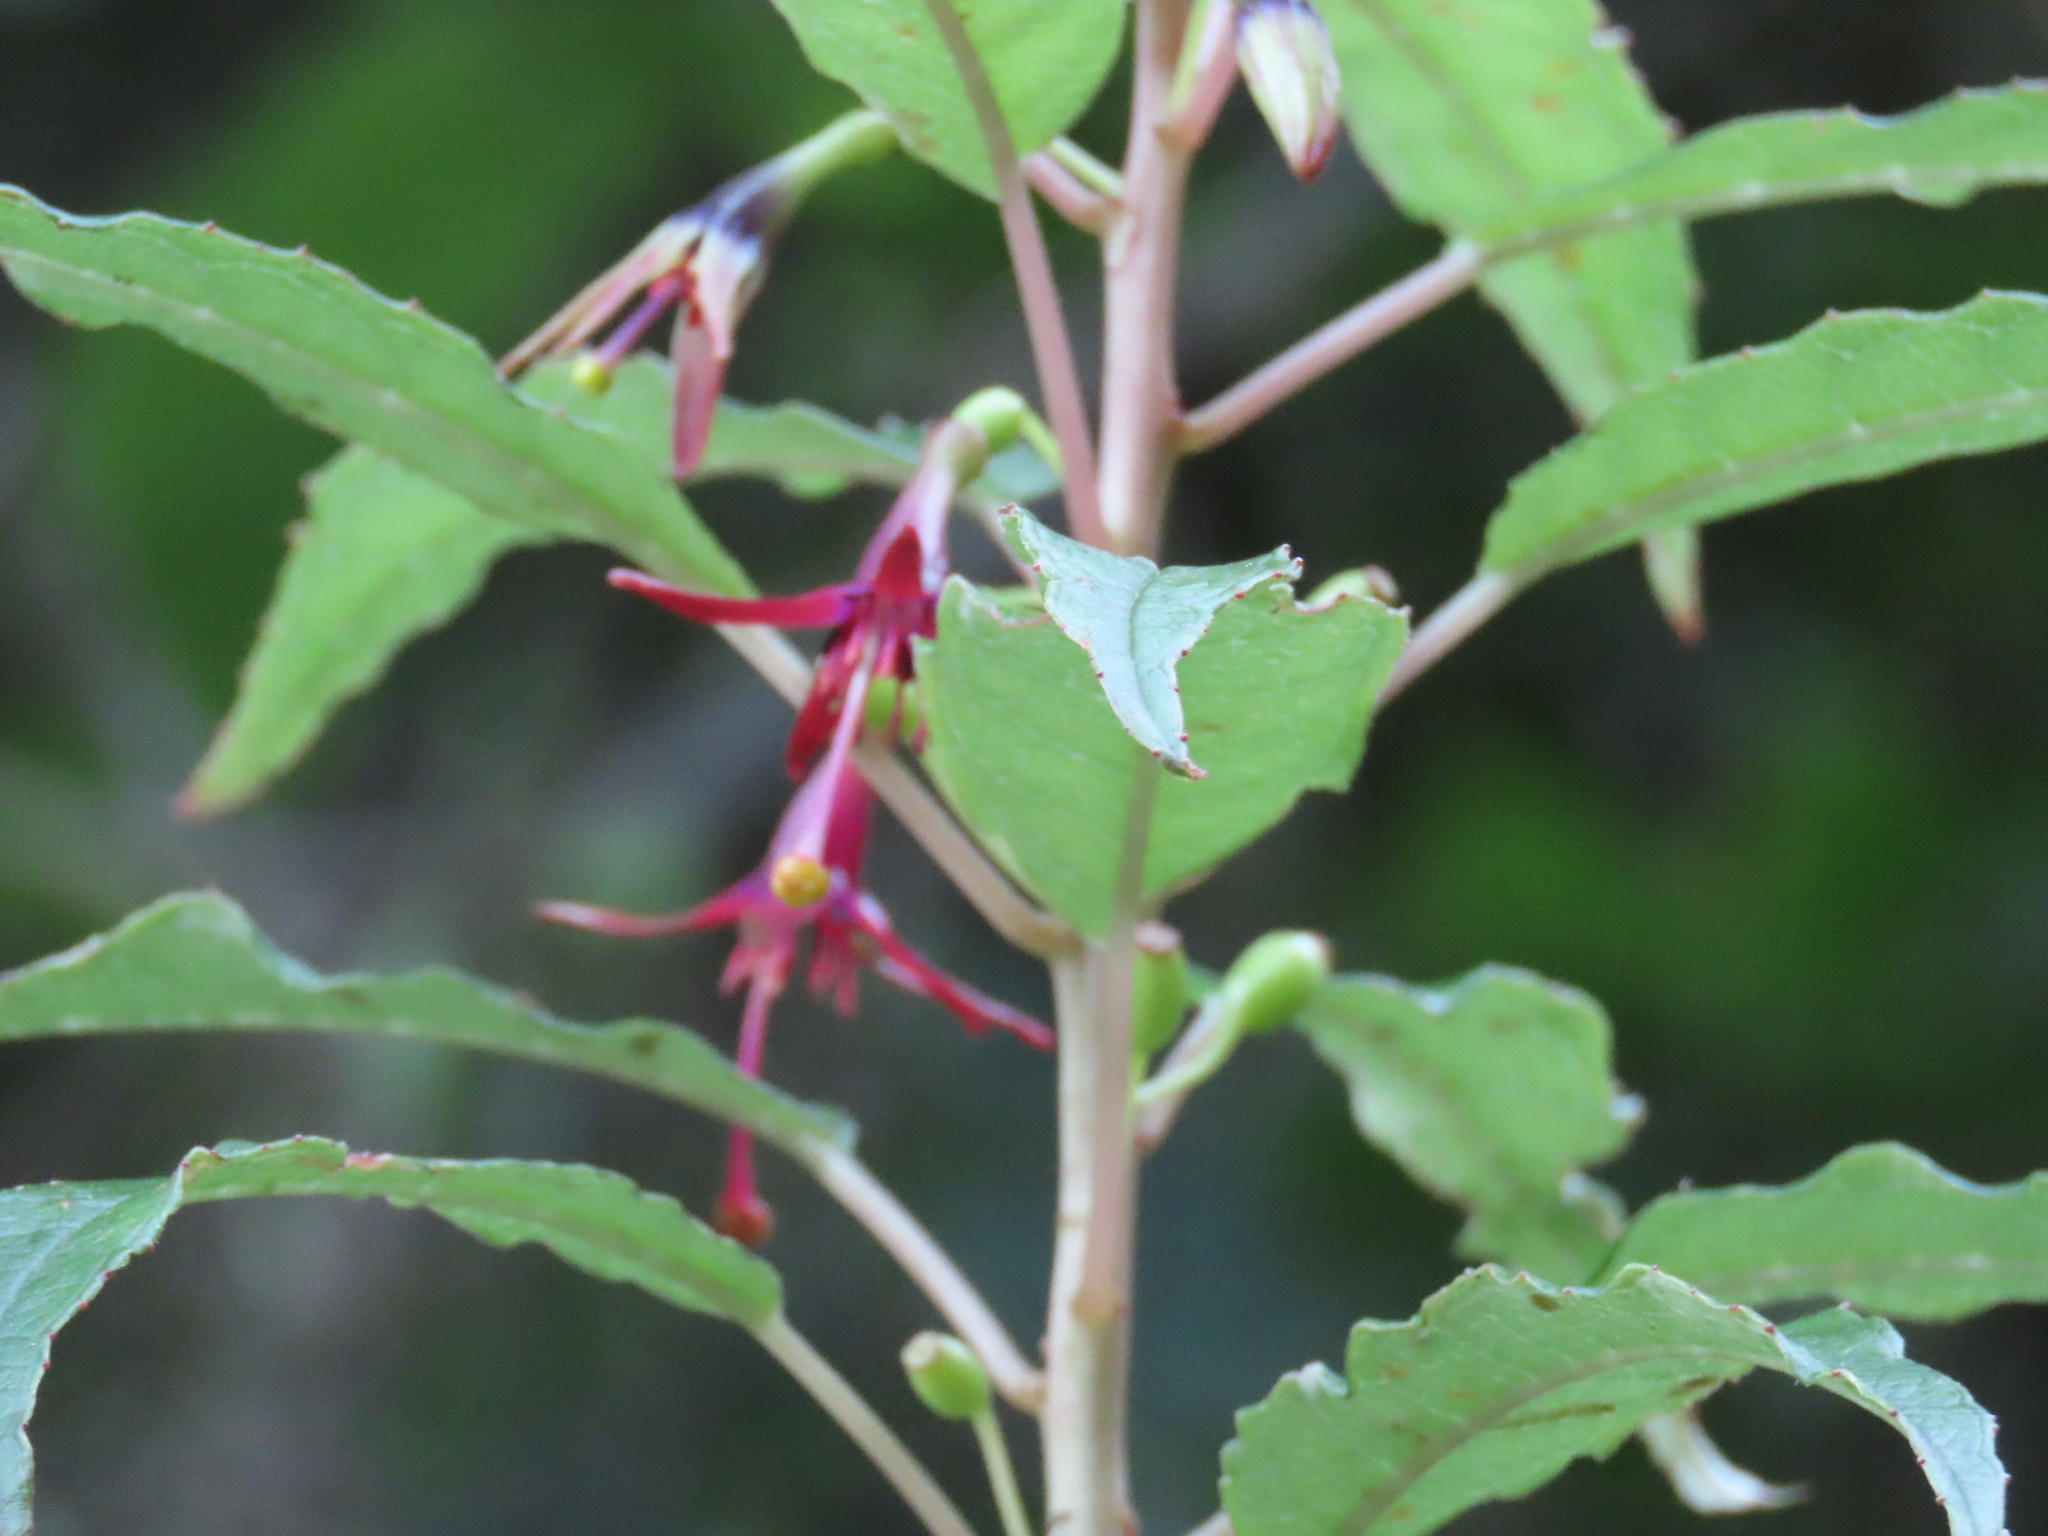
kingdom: Plantae
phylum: Tracheophyta
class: Magnoliopsida
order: Myrtales
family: Onagraceae
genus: Fuchsia
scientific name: Fuchsia excorticata
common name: Tree fuchsia
